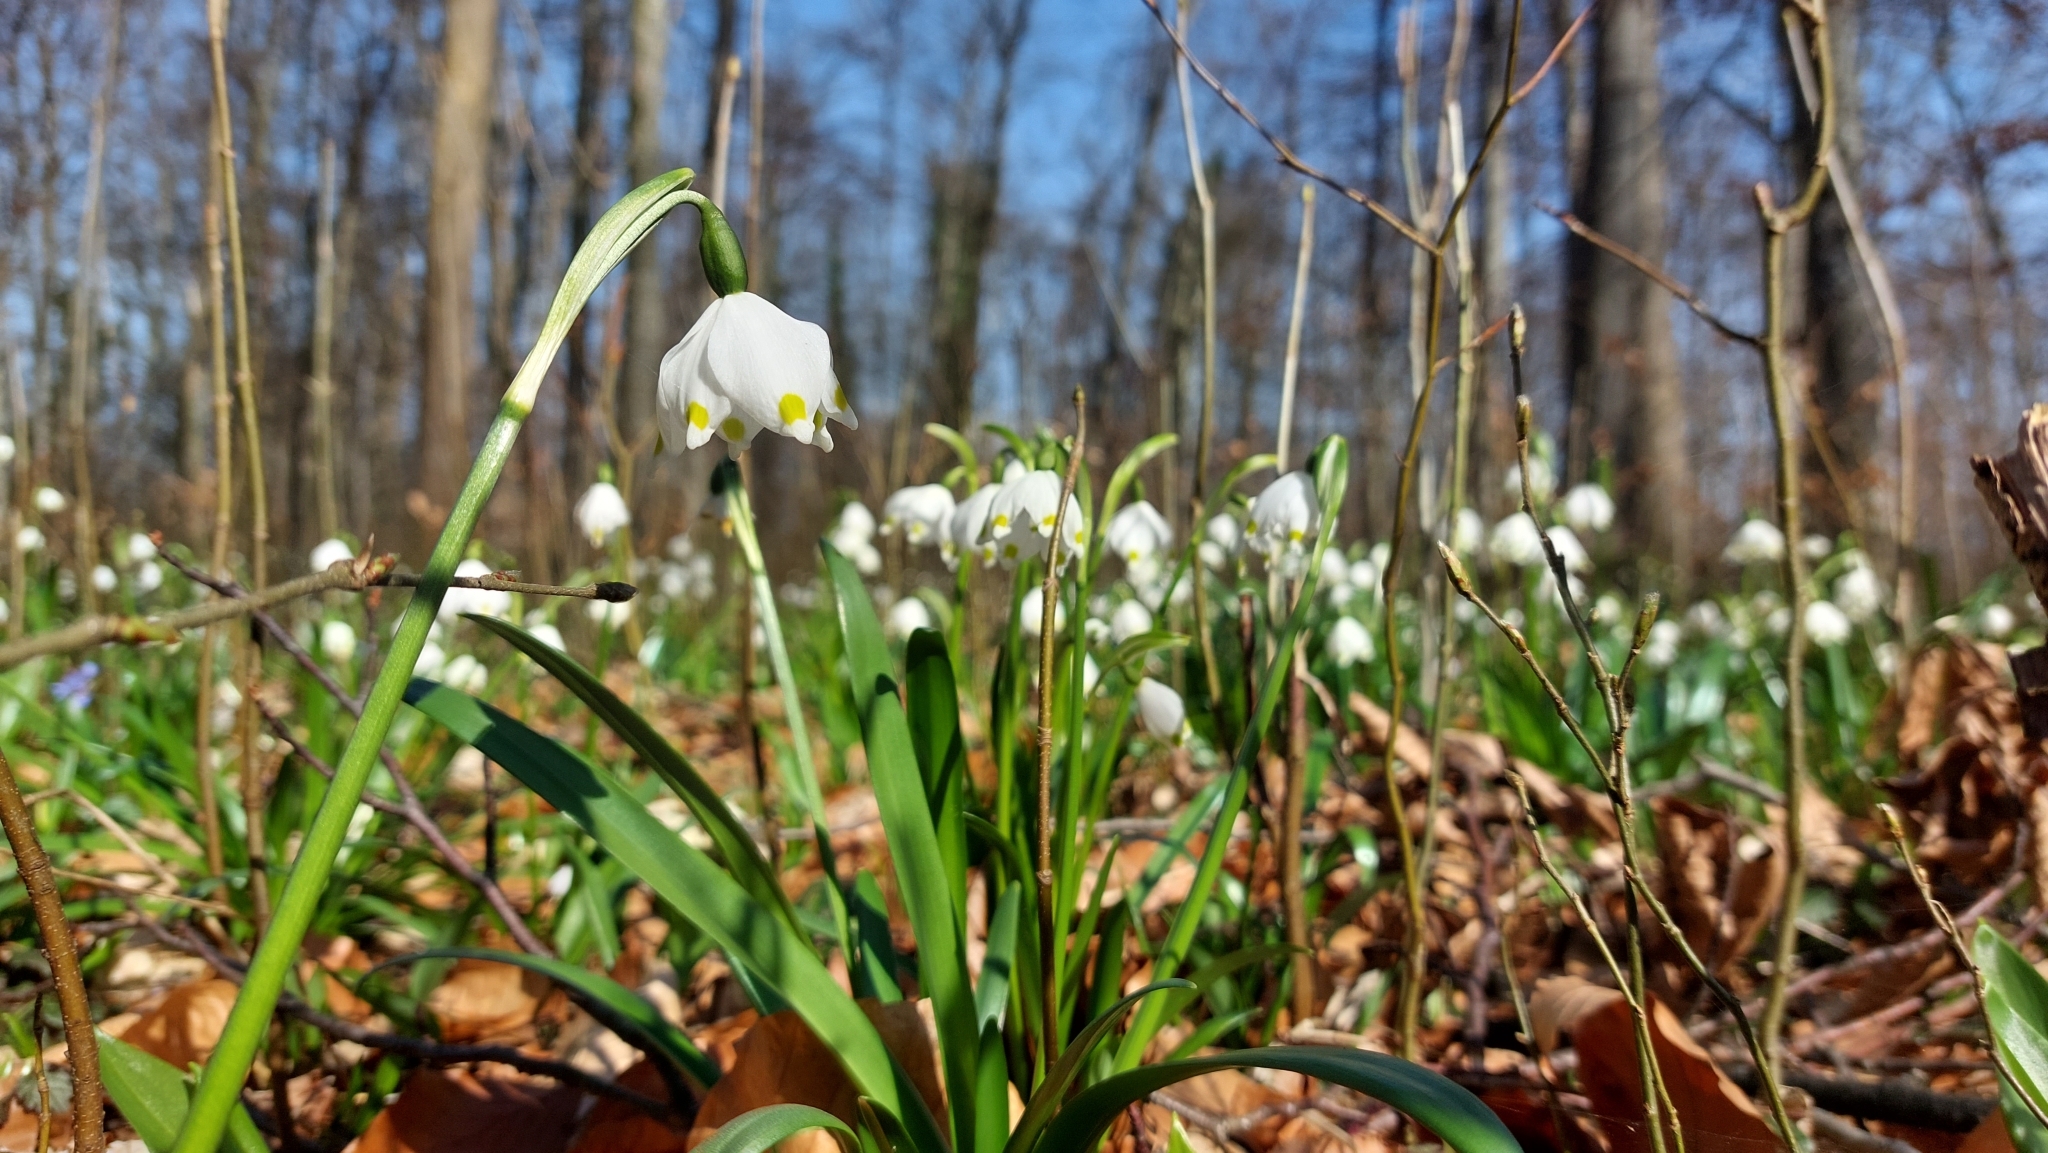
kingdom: Plantae
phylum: Tracheophyta
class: Liliopsida
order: Asparagales
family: Amaryllidaceae
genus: Leucojum
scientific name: Leucojum vernum
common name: Spring snowflake
